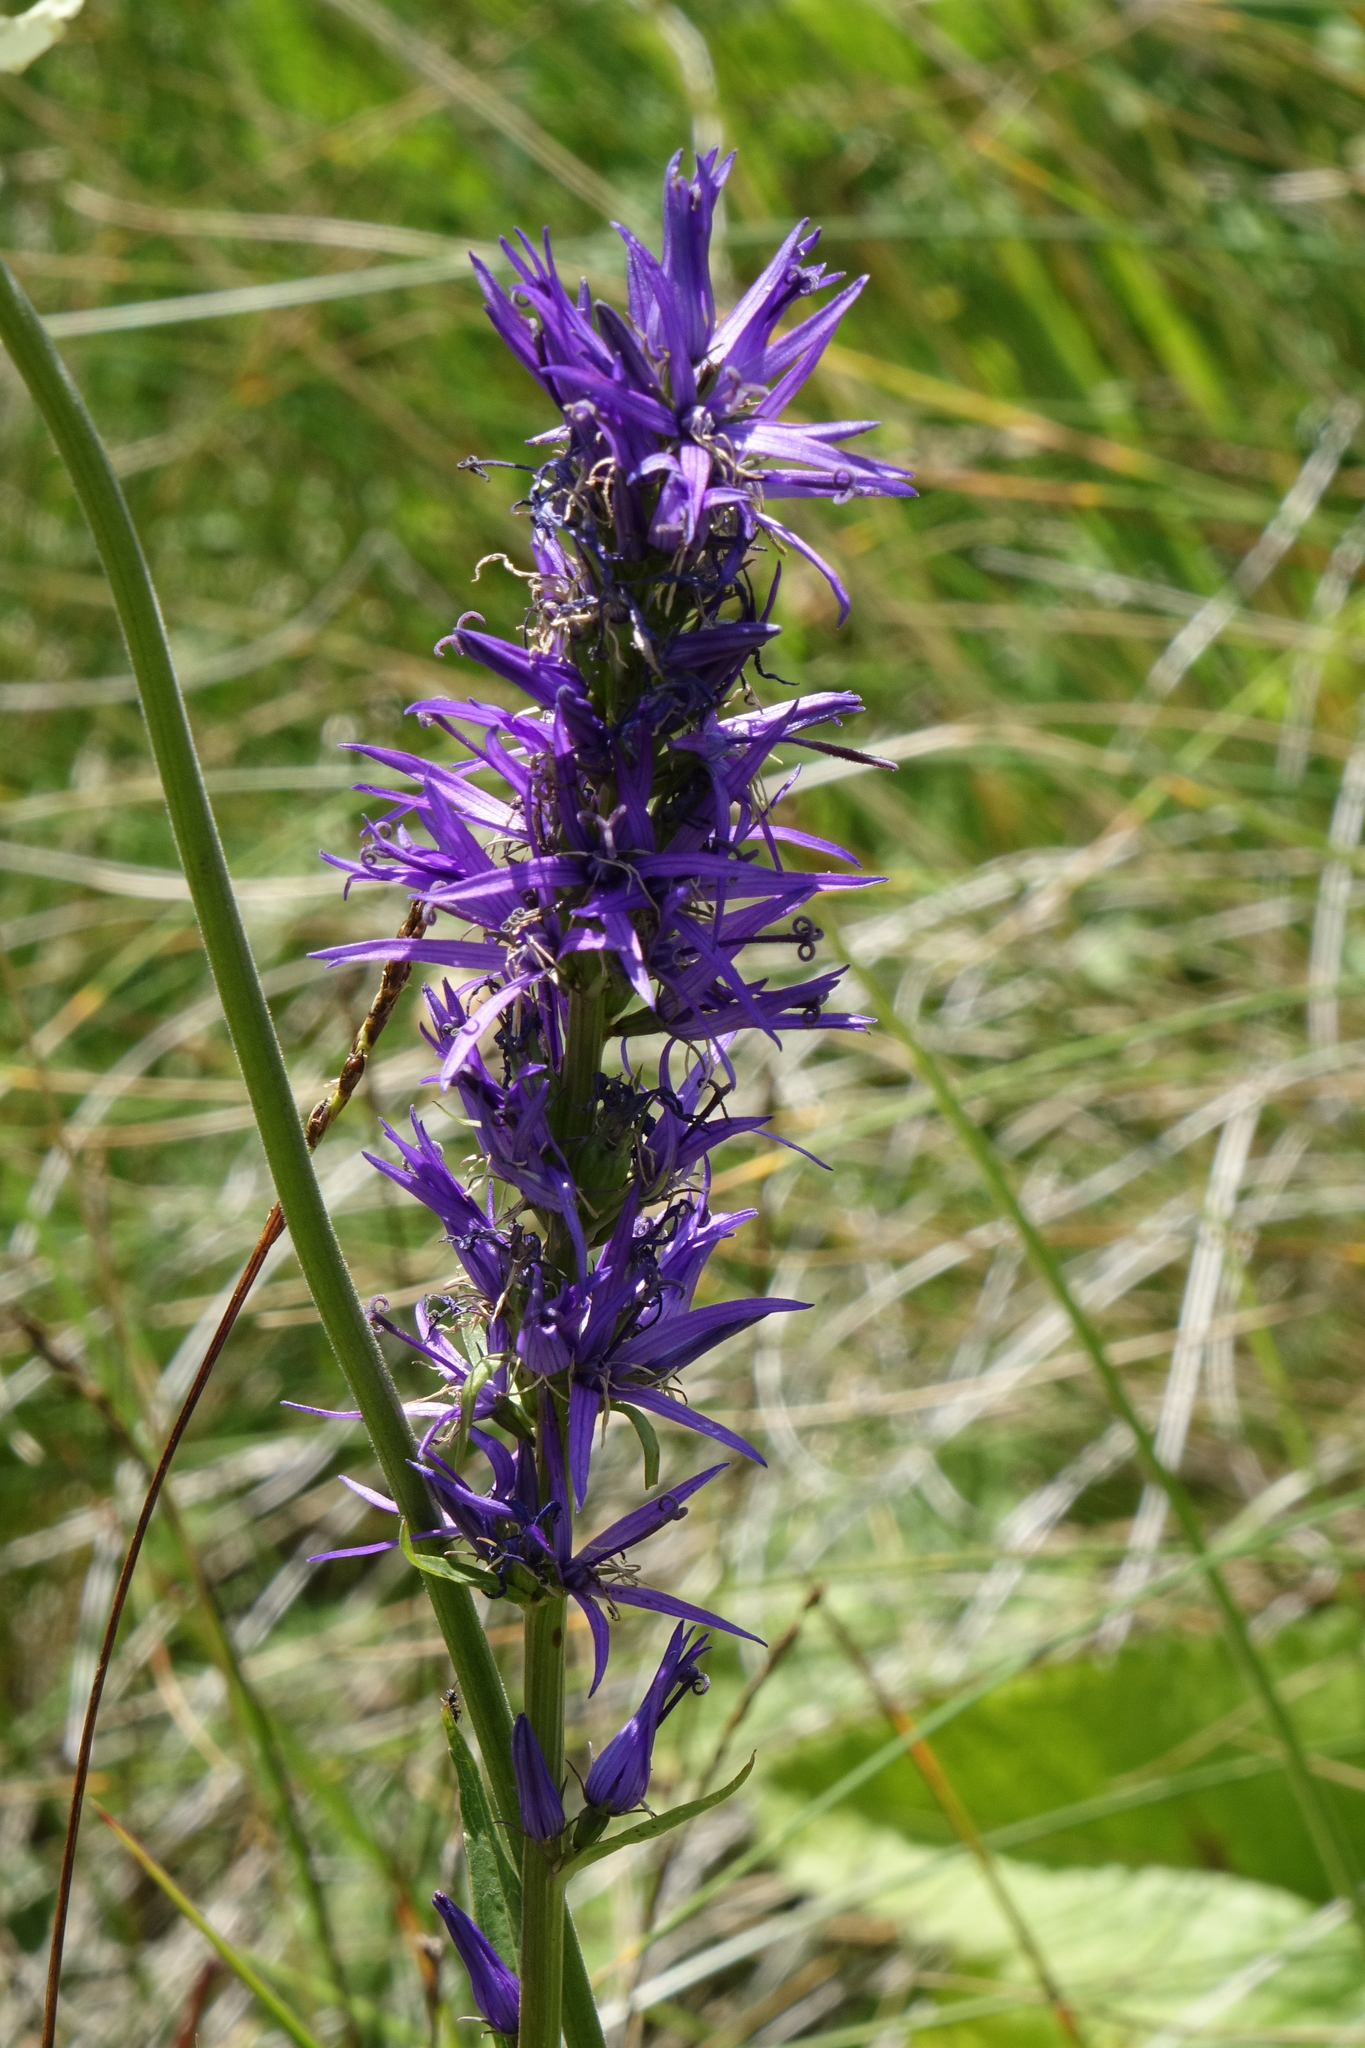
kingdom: Plantae
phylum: Tracheophyta
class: Magnoliopsida
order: Asterales
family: Campanulaceae
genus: Asyneuma
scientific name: Asyneuma campanuloides
